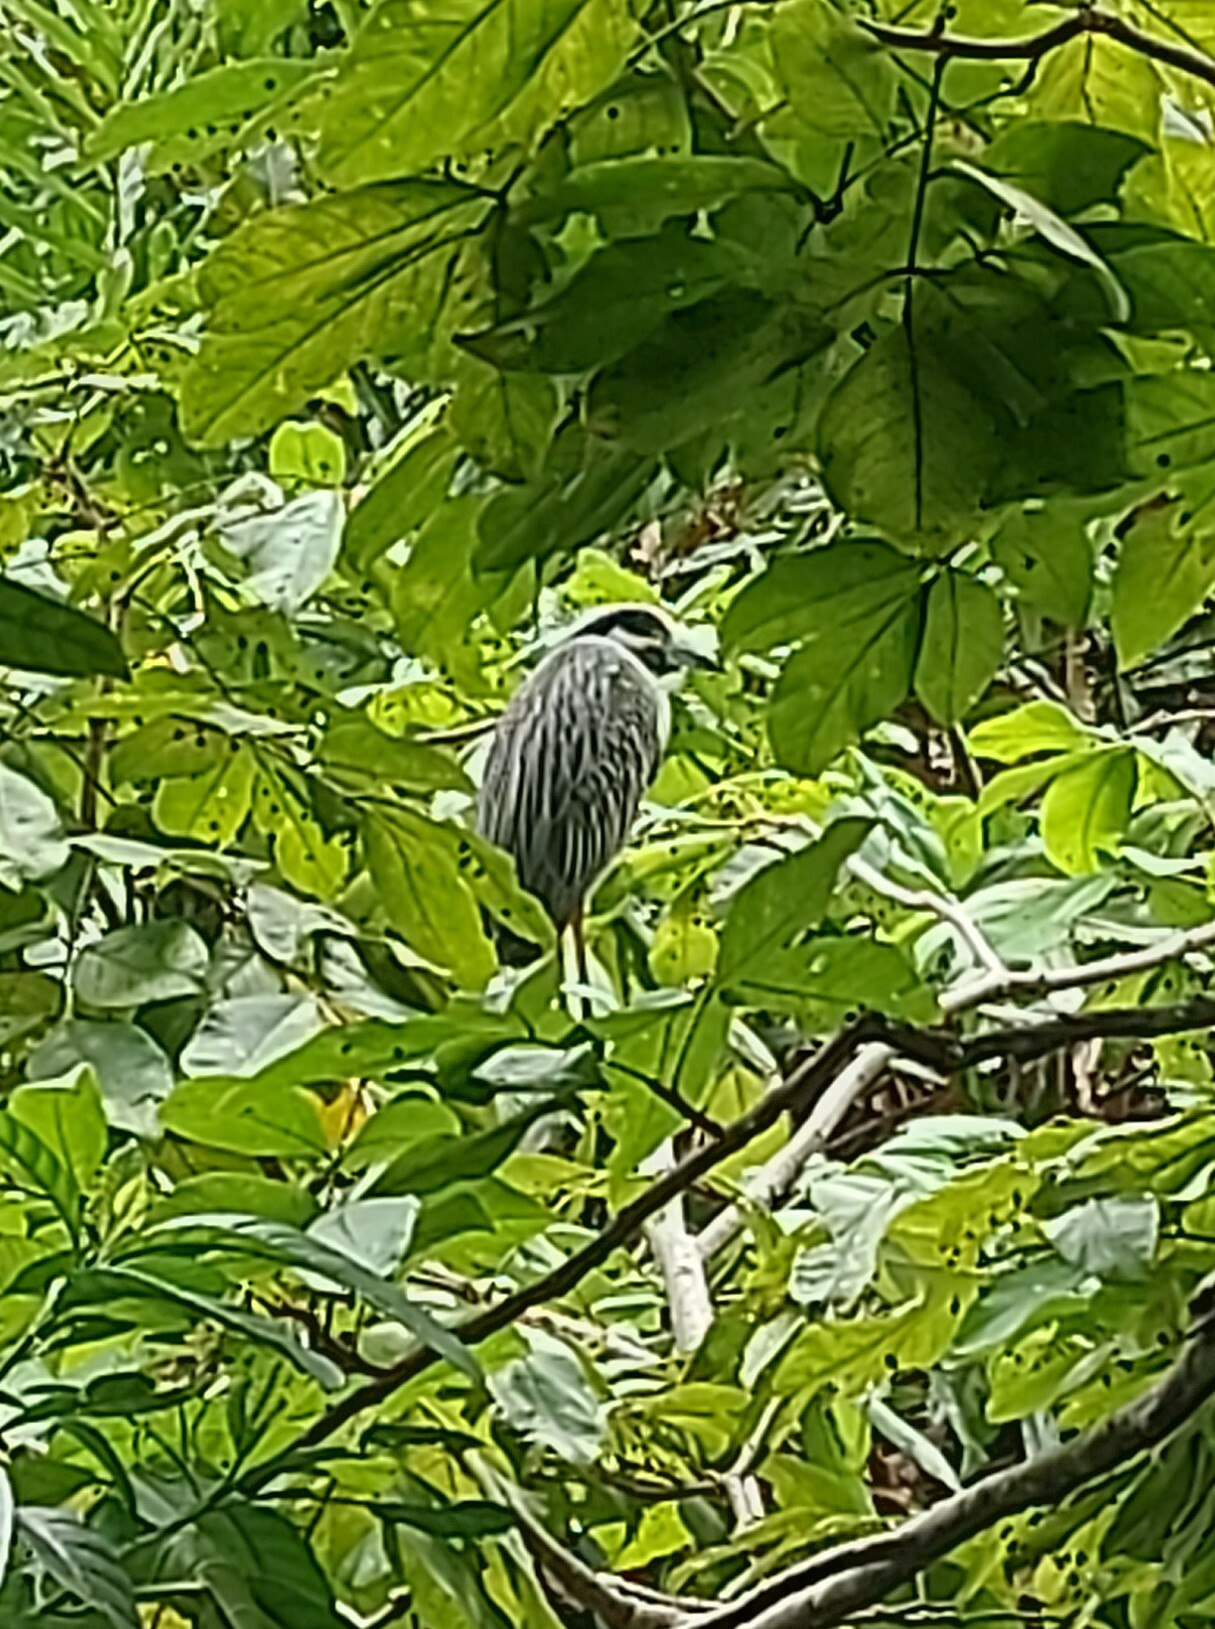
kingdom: Animalia
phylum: Chordata
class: Aves
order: Pelecaniformes
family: Ardeidae
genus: Nyctanassa
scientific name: Nyctanassa violacea
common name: Yellow-crowned night heron
